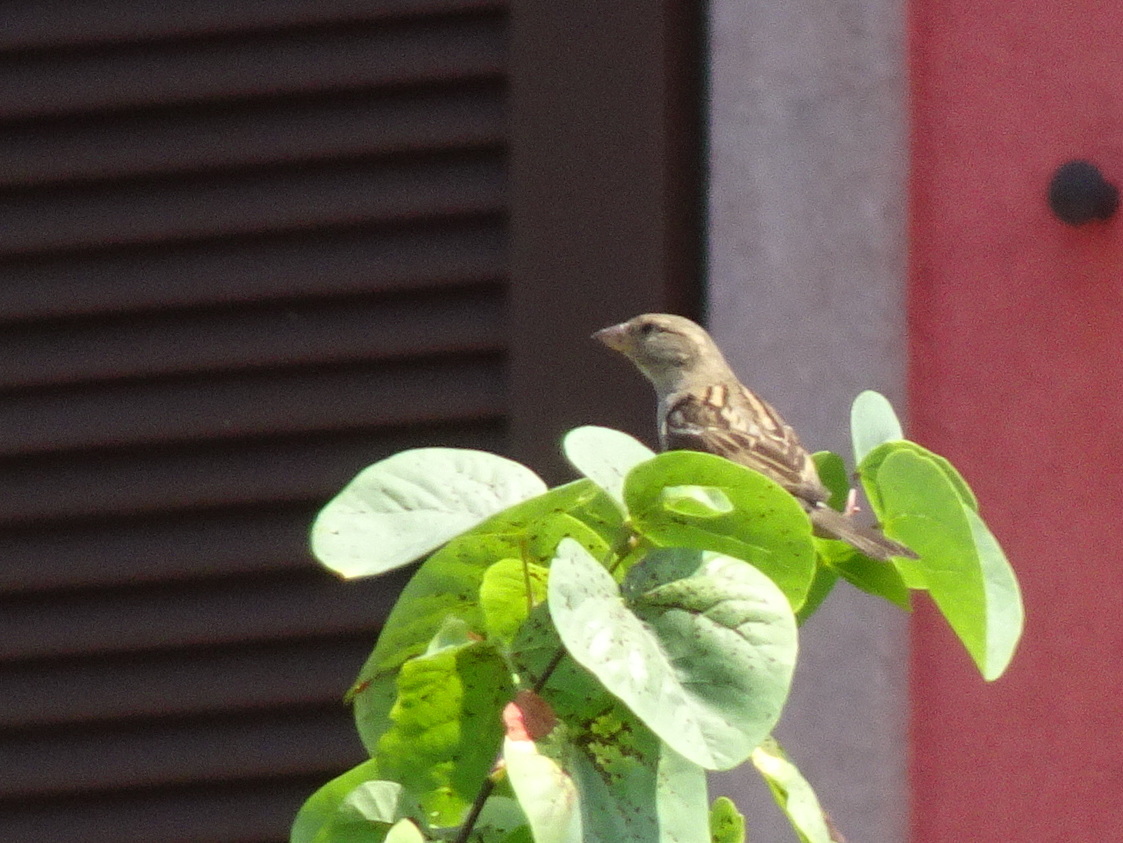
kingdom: Animalia
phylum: Chordata
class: Aves
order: Passeriformes
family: Passeridae
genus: Passer
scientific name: Passer domesticus
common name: House sparrow
